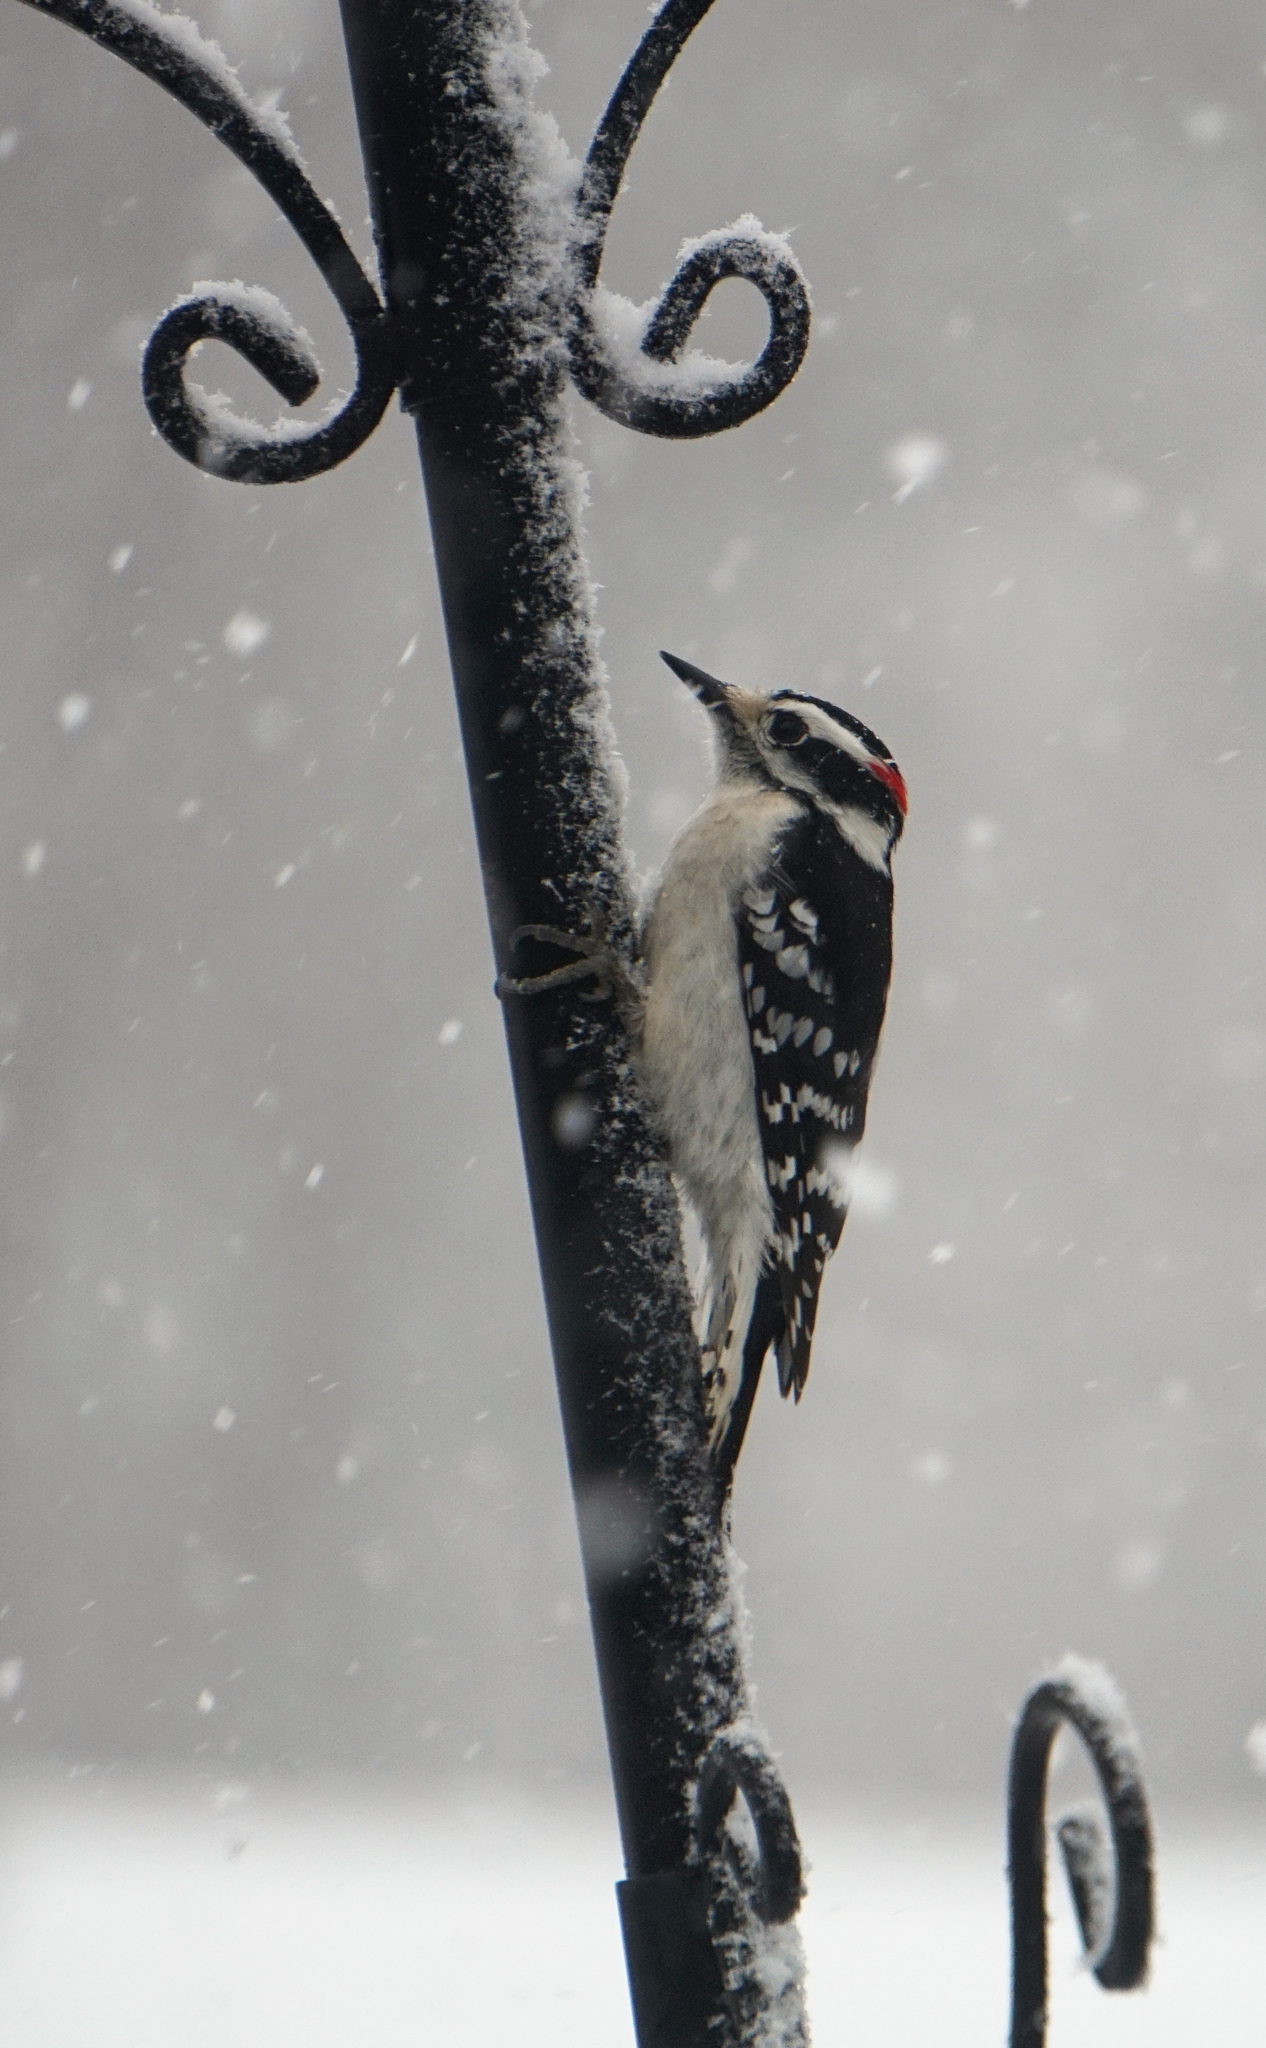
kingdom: Animalia
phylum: Chordata
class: Aves
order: Piciformes
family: Picidae
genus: Dryobates
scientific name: Dryobates pubescens
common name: Downy woodpecker
